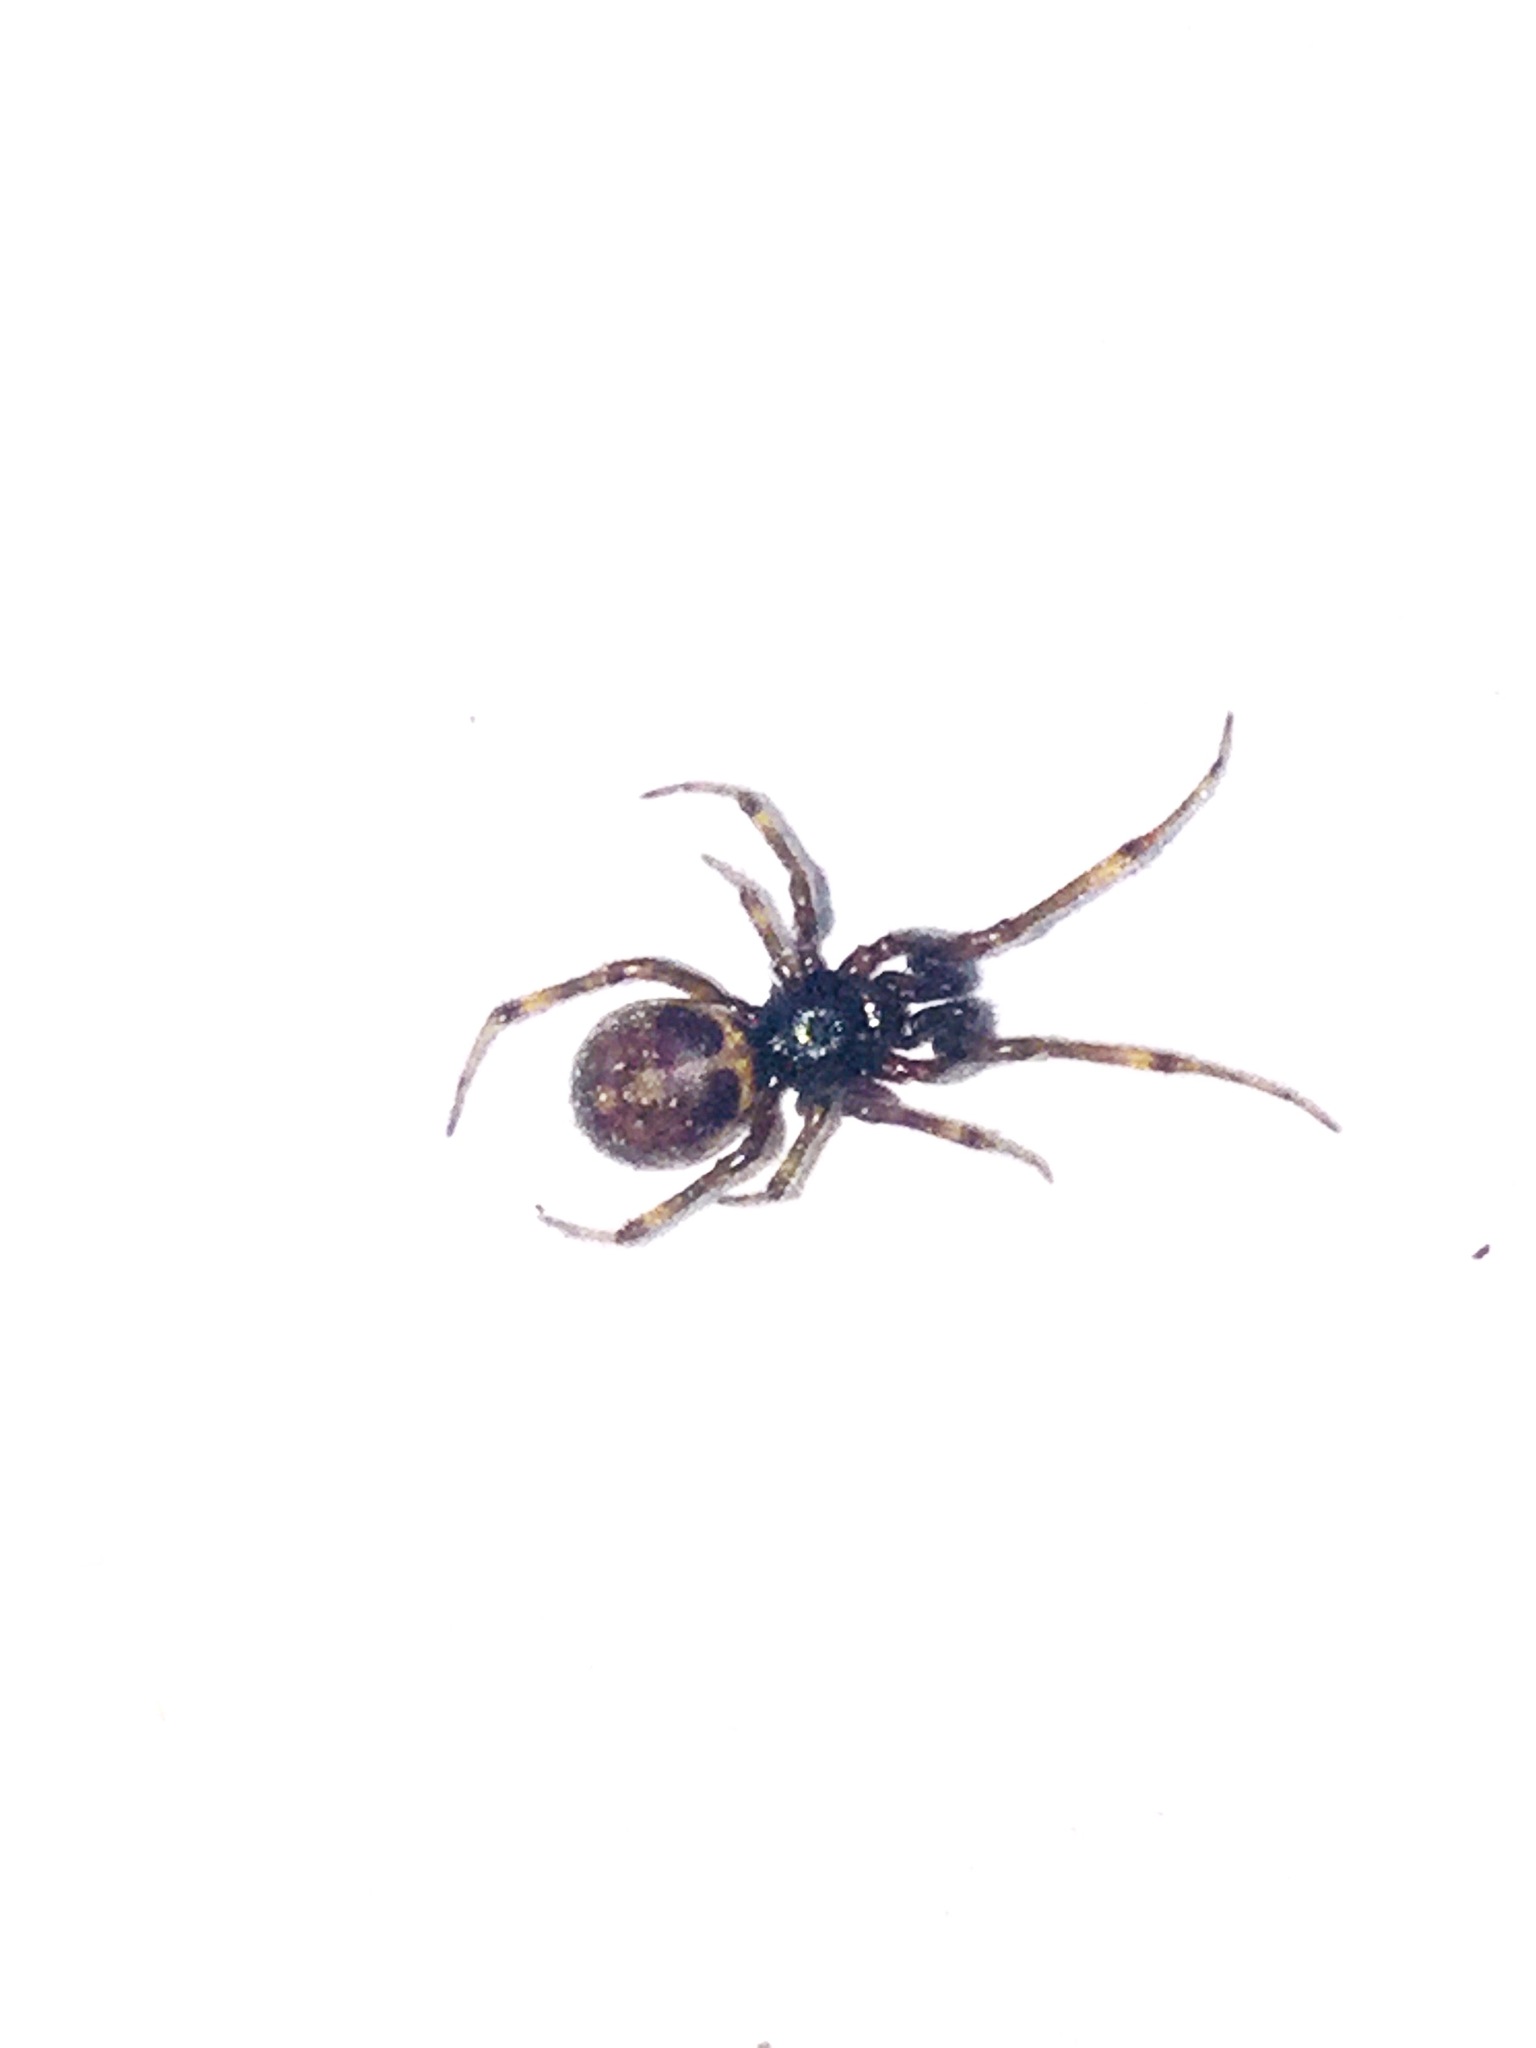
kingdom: Animalia
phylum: Arthropoda
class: Arachnida
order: Araneae
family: Theridiidae
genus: Steatoda
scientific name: Steatoda borealis
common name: Boreal combfoot
